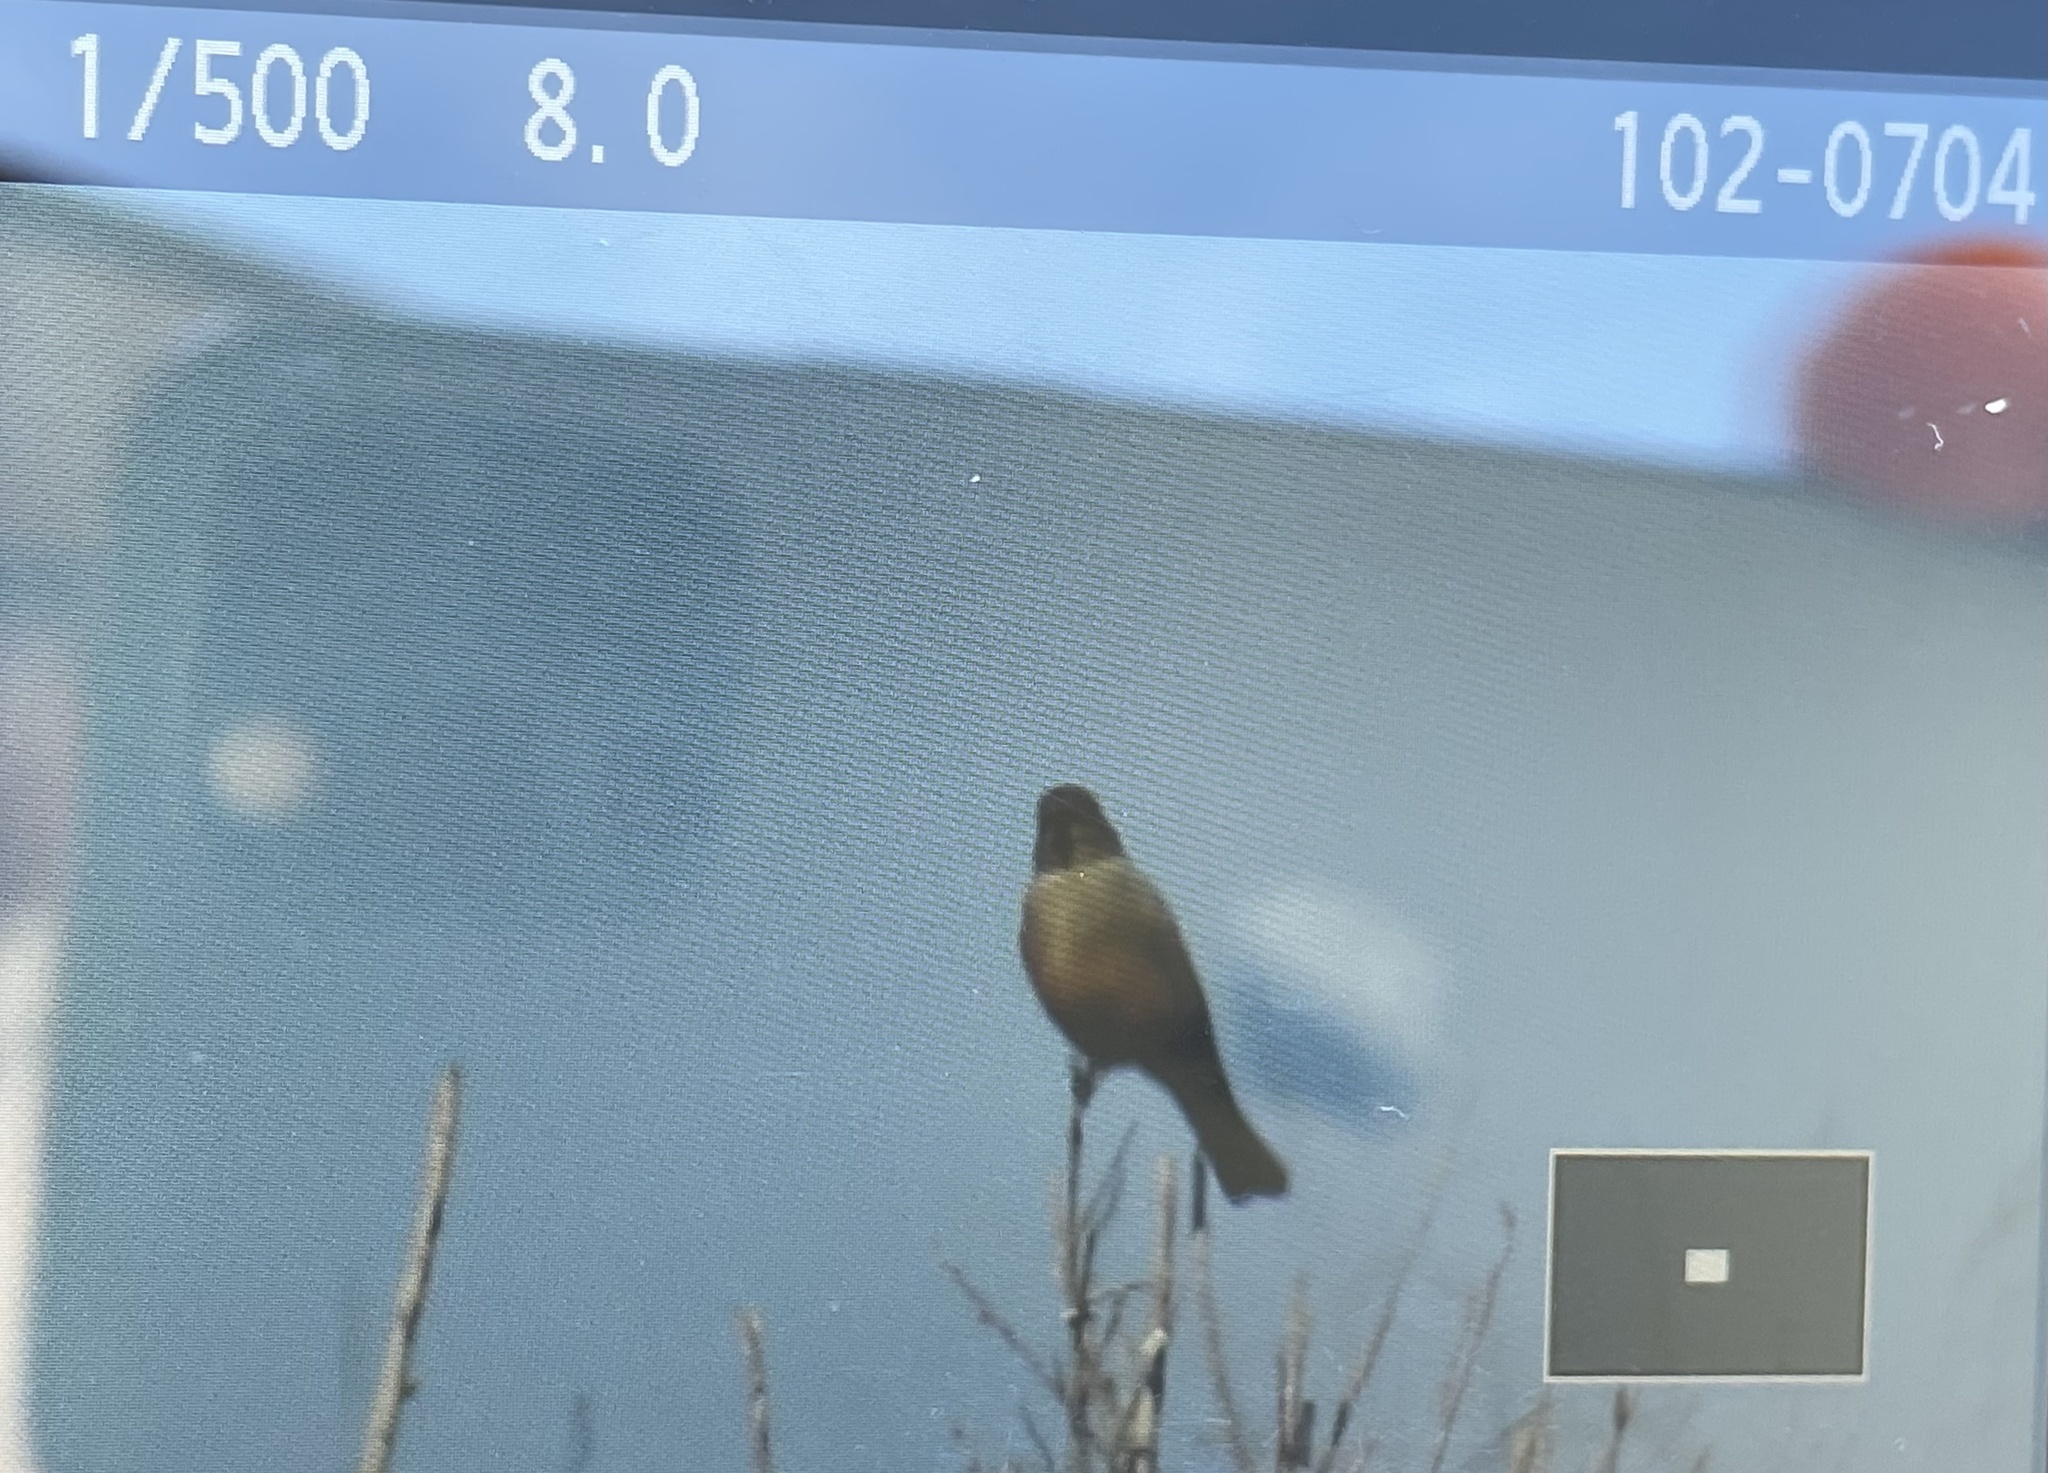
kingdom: Animalia
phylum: Chordata
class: Aves
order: Passeriformes
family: Tyrannidae
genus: Sayornis
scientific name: Sayornis saya
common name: Say's phoebe
